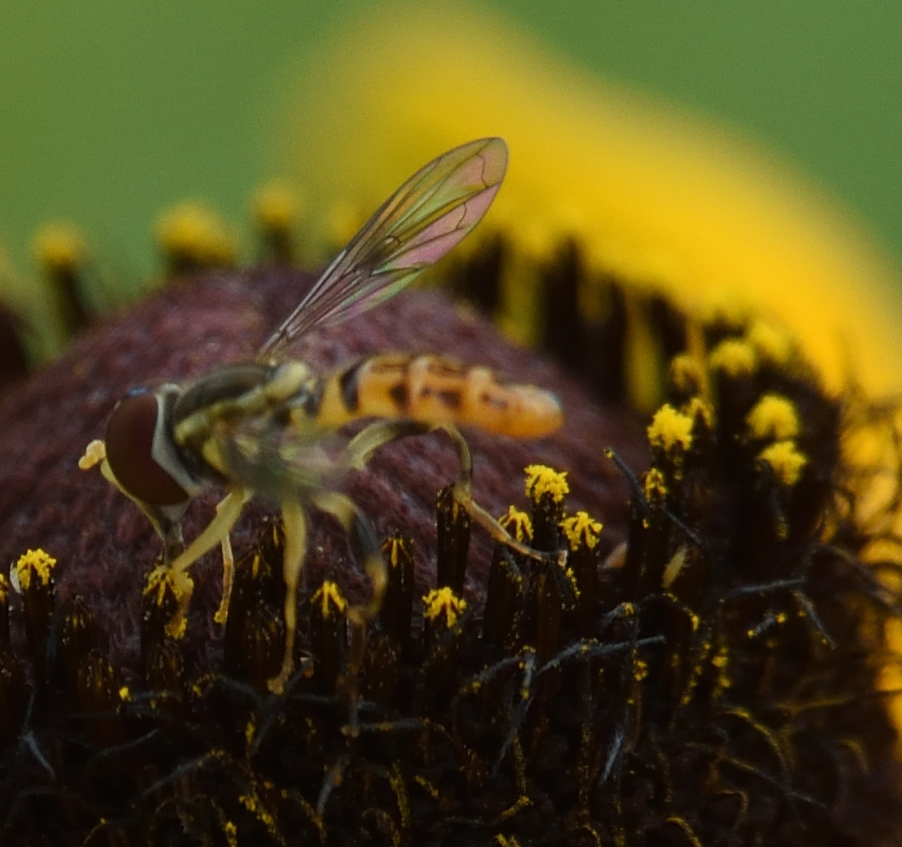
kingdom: Animalia
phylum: Arthropoda
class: Insecta
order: Diptera
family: Syrphidae
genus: Toxomerus
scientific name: Toxomerus geminatus
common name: Eastern calligrapher
